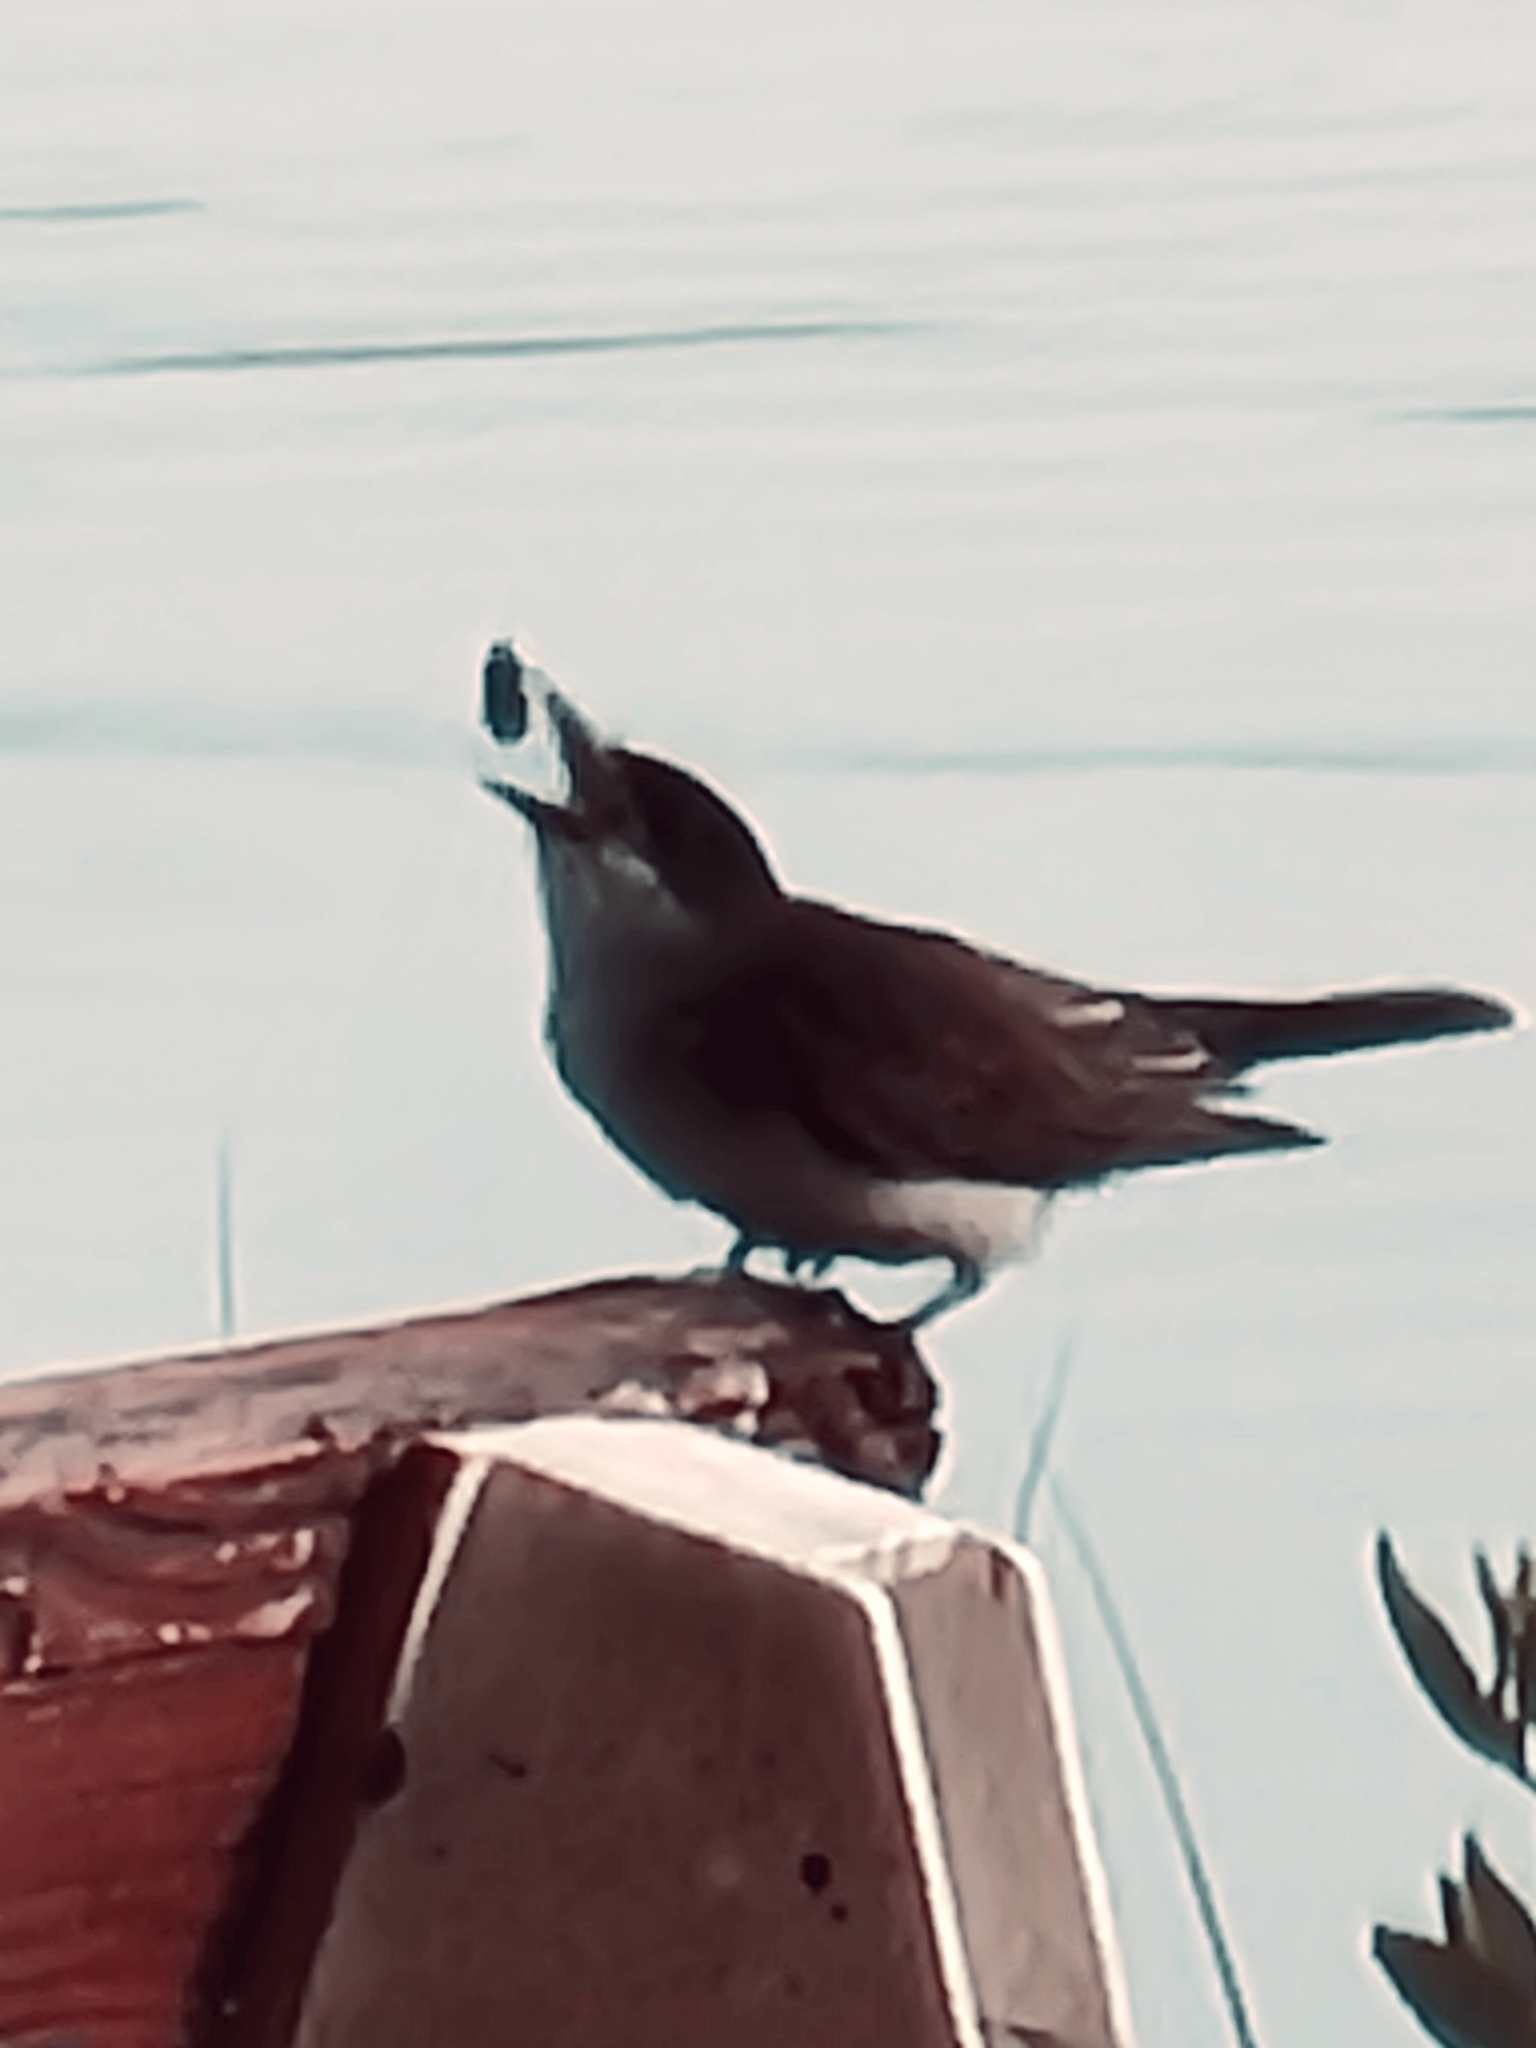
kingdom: Animalia
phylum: Chordata
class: Aves
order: Passeriformes
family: Tyrannidae
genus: Tyrannus
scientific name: Tyrannus tyrannus
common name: Eastern kingbird
